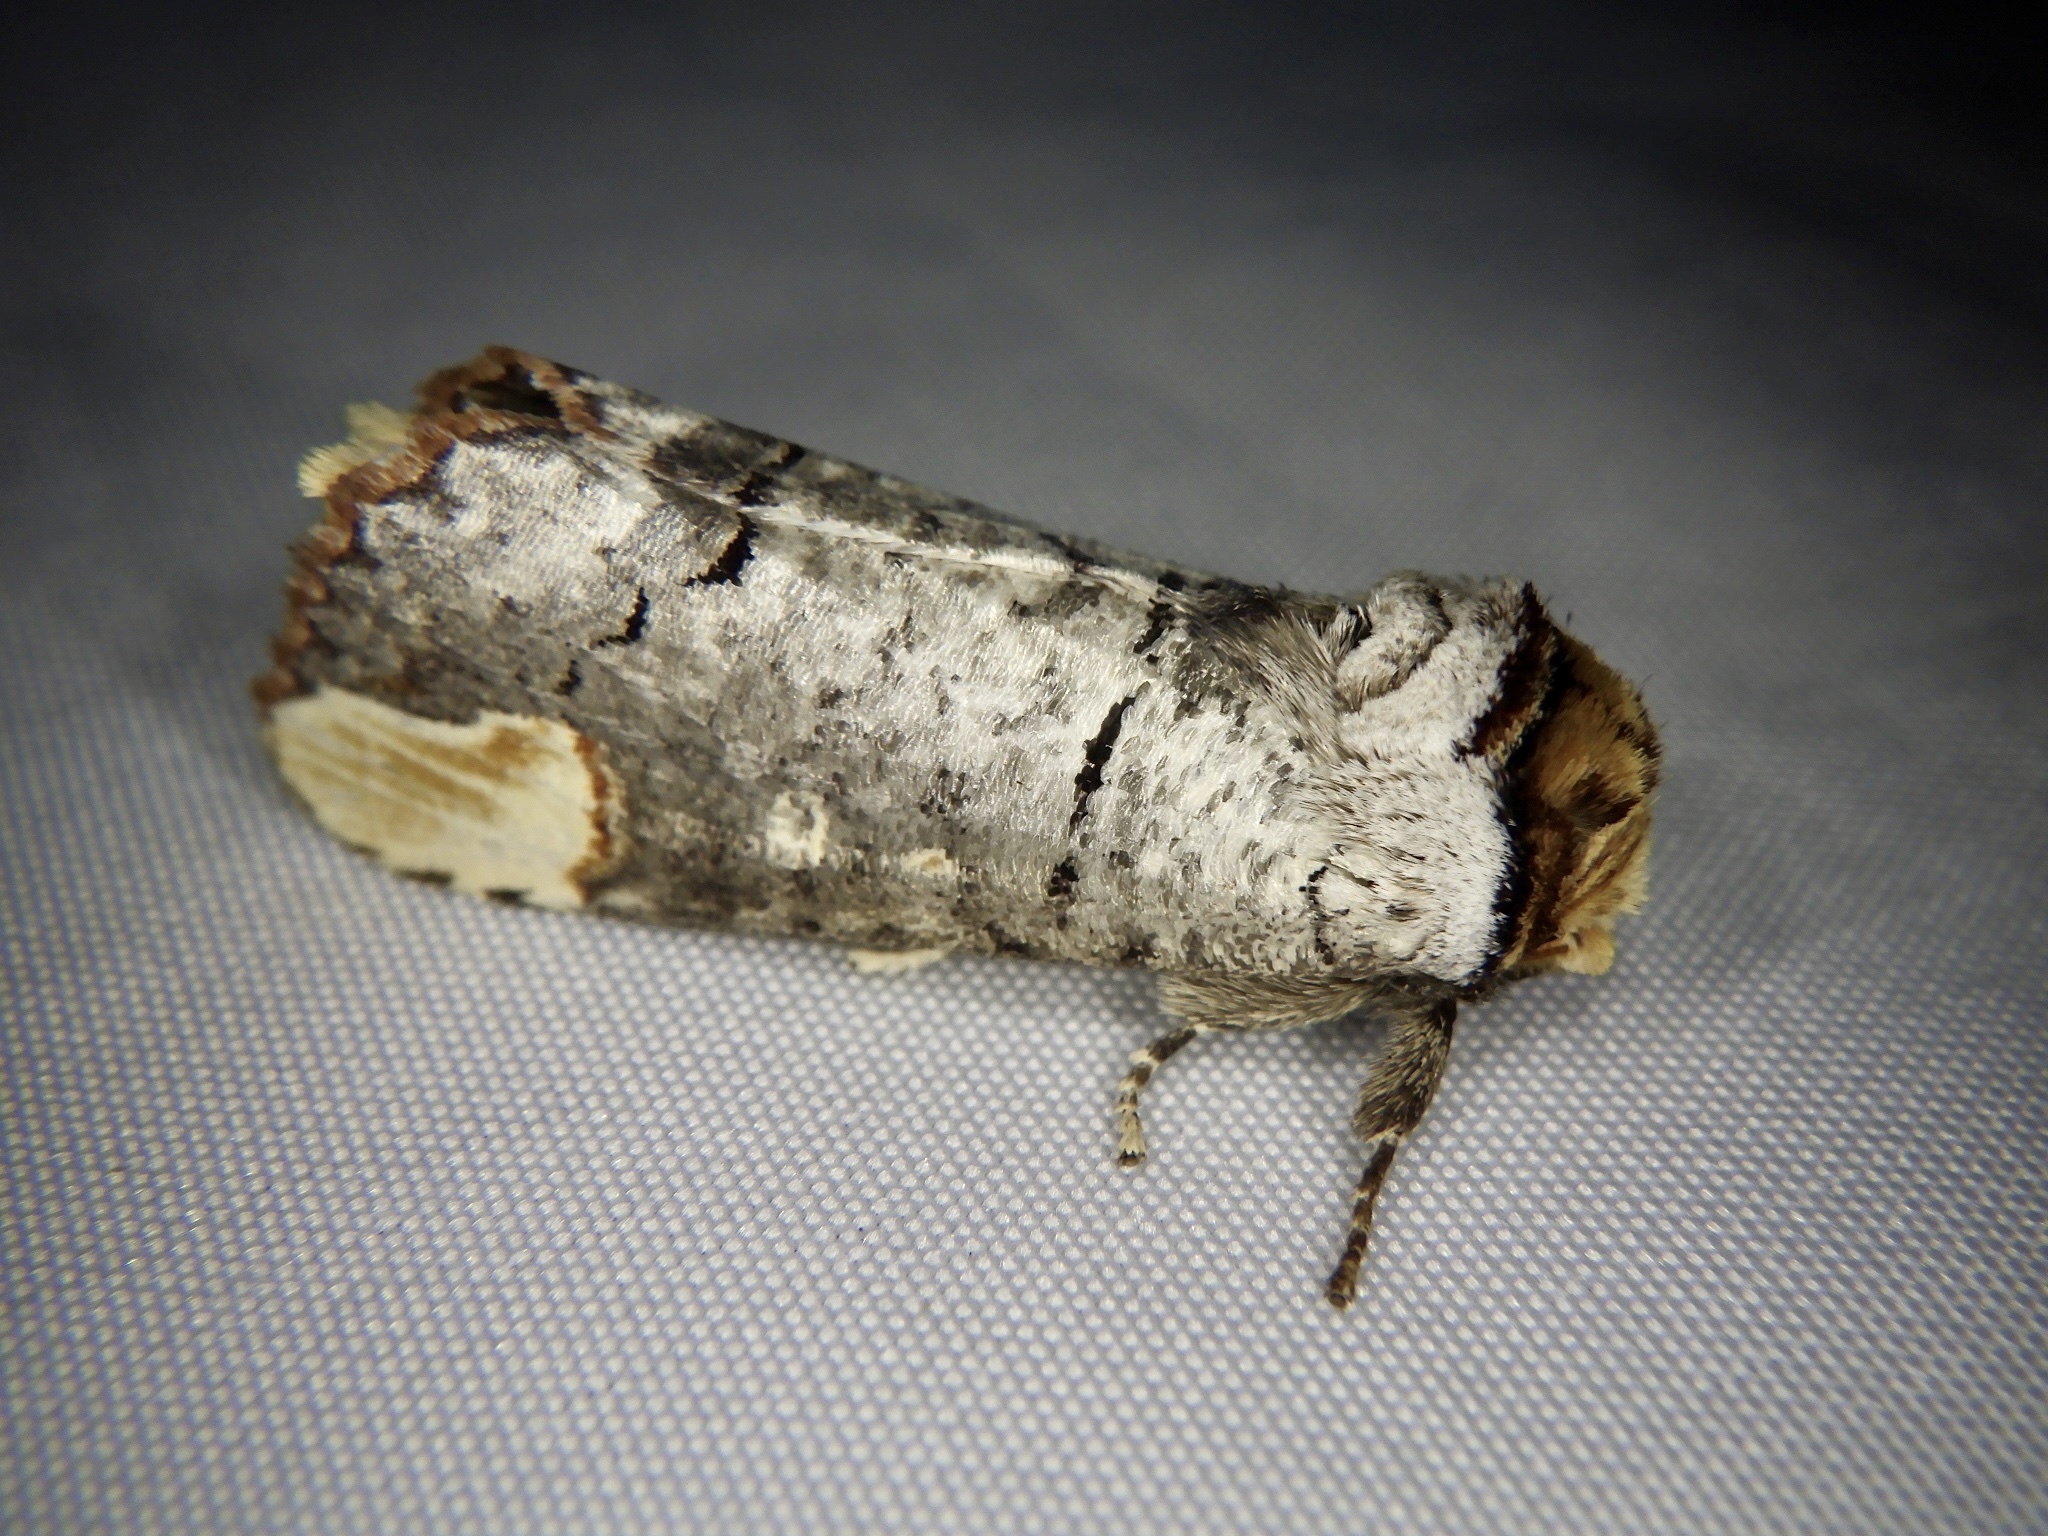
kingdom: Animalia
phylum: Arthropoda
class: Insecta
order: Lepidoptera
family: Notodontidae
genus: Phalera
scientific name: Phalera assimilis
